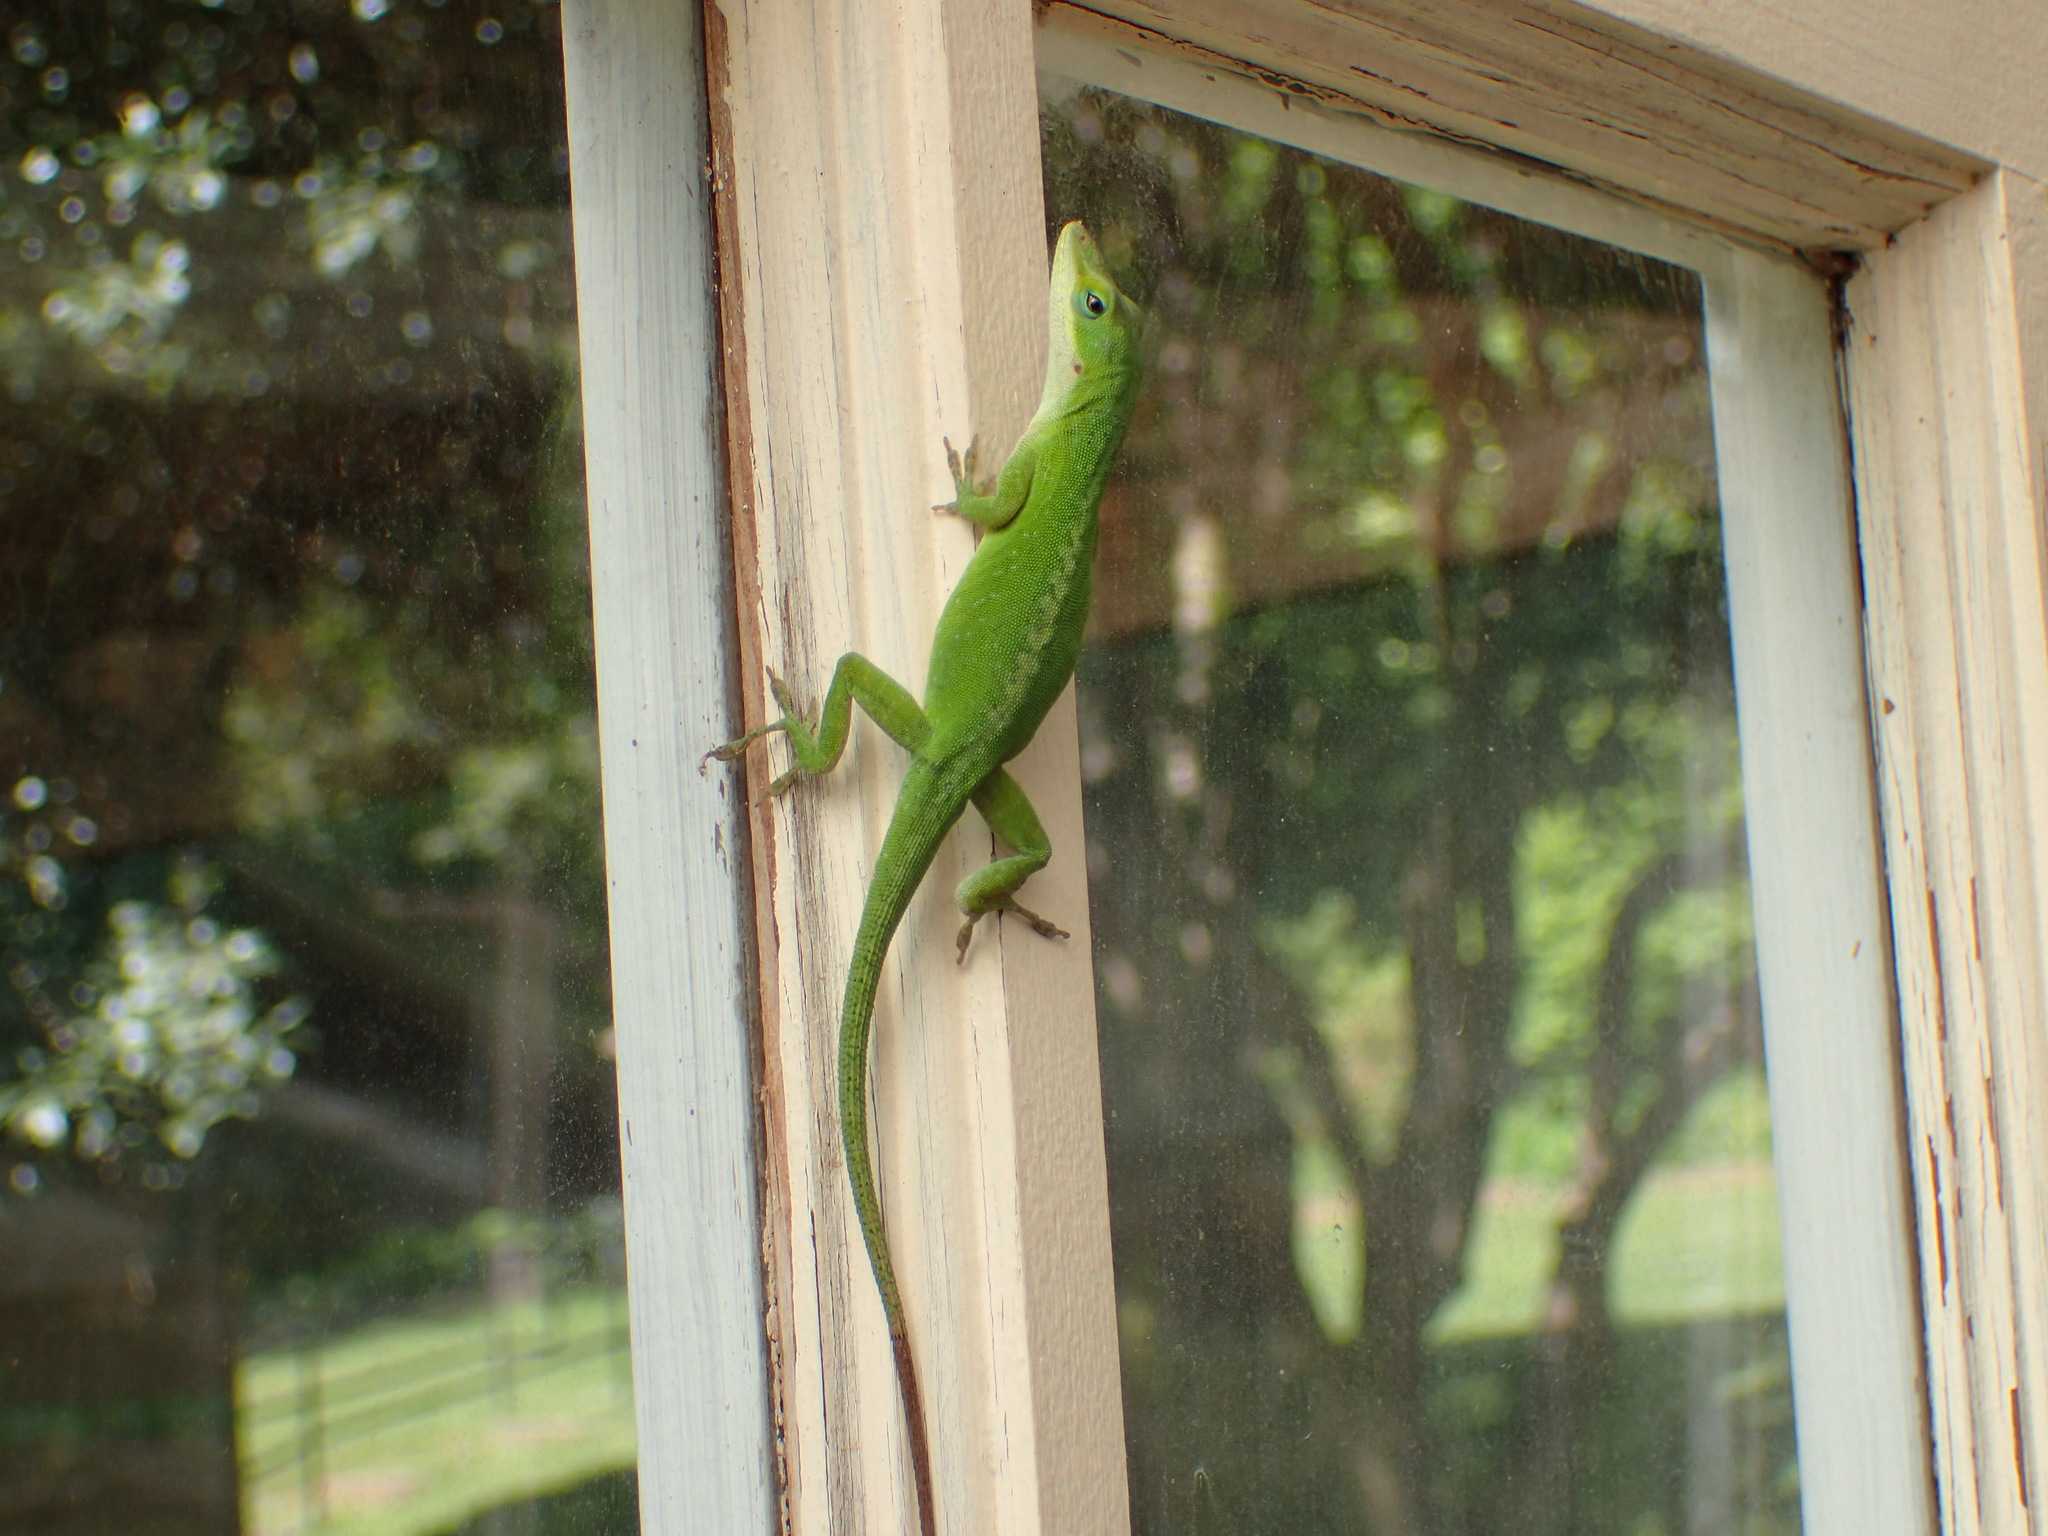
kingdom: Animalia
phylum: Chordata
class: Squamata
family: Dactyloidae
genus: Anolis
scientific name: Anolis carolinensis
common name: Green anole
